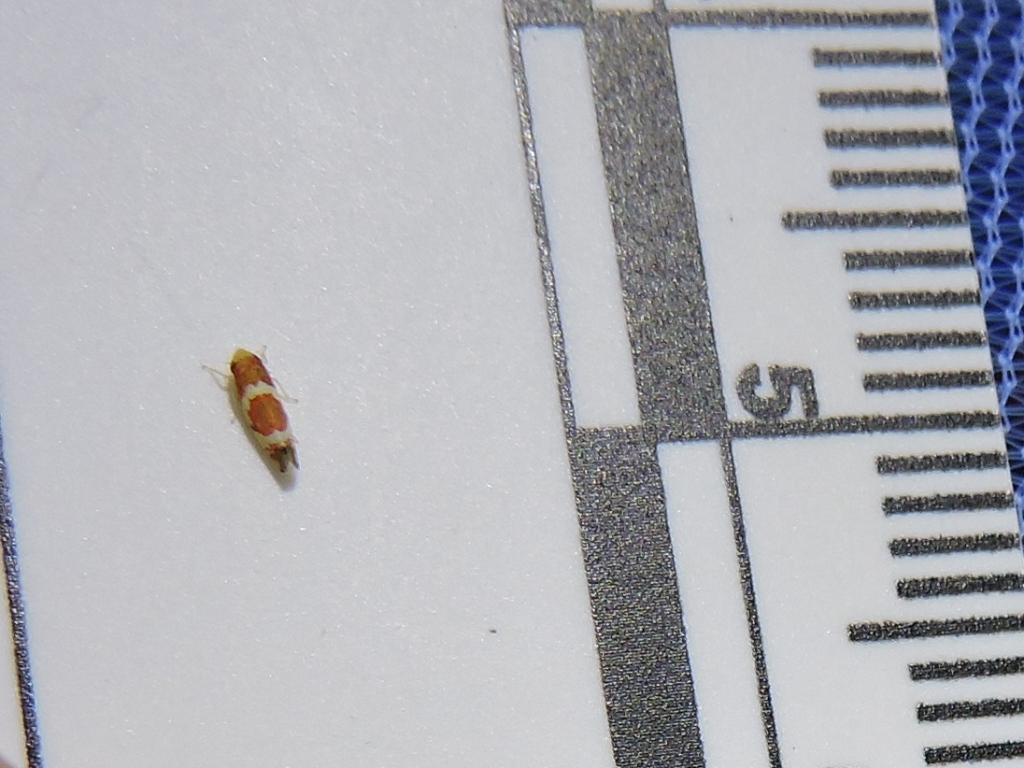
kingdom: Animalia
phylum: Arthropoda
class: Insecta
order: Hemiptera
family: Cicadellidae
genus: Erythroneura
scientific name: Erythroneura vitis
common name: Grapevine leafhopper
